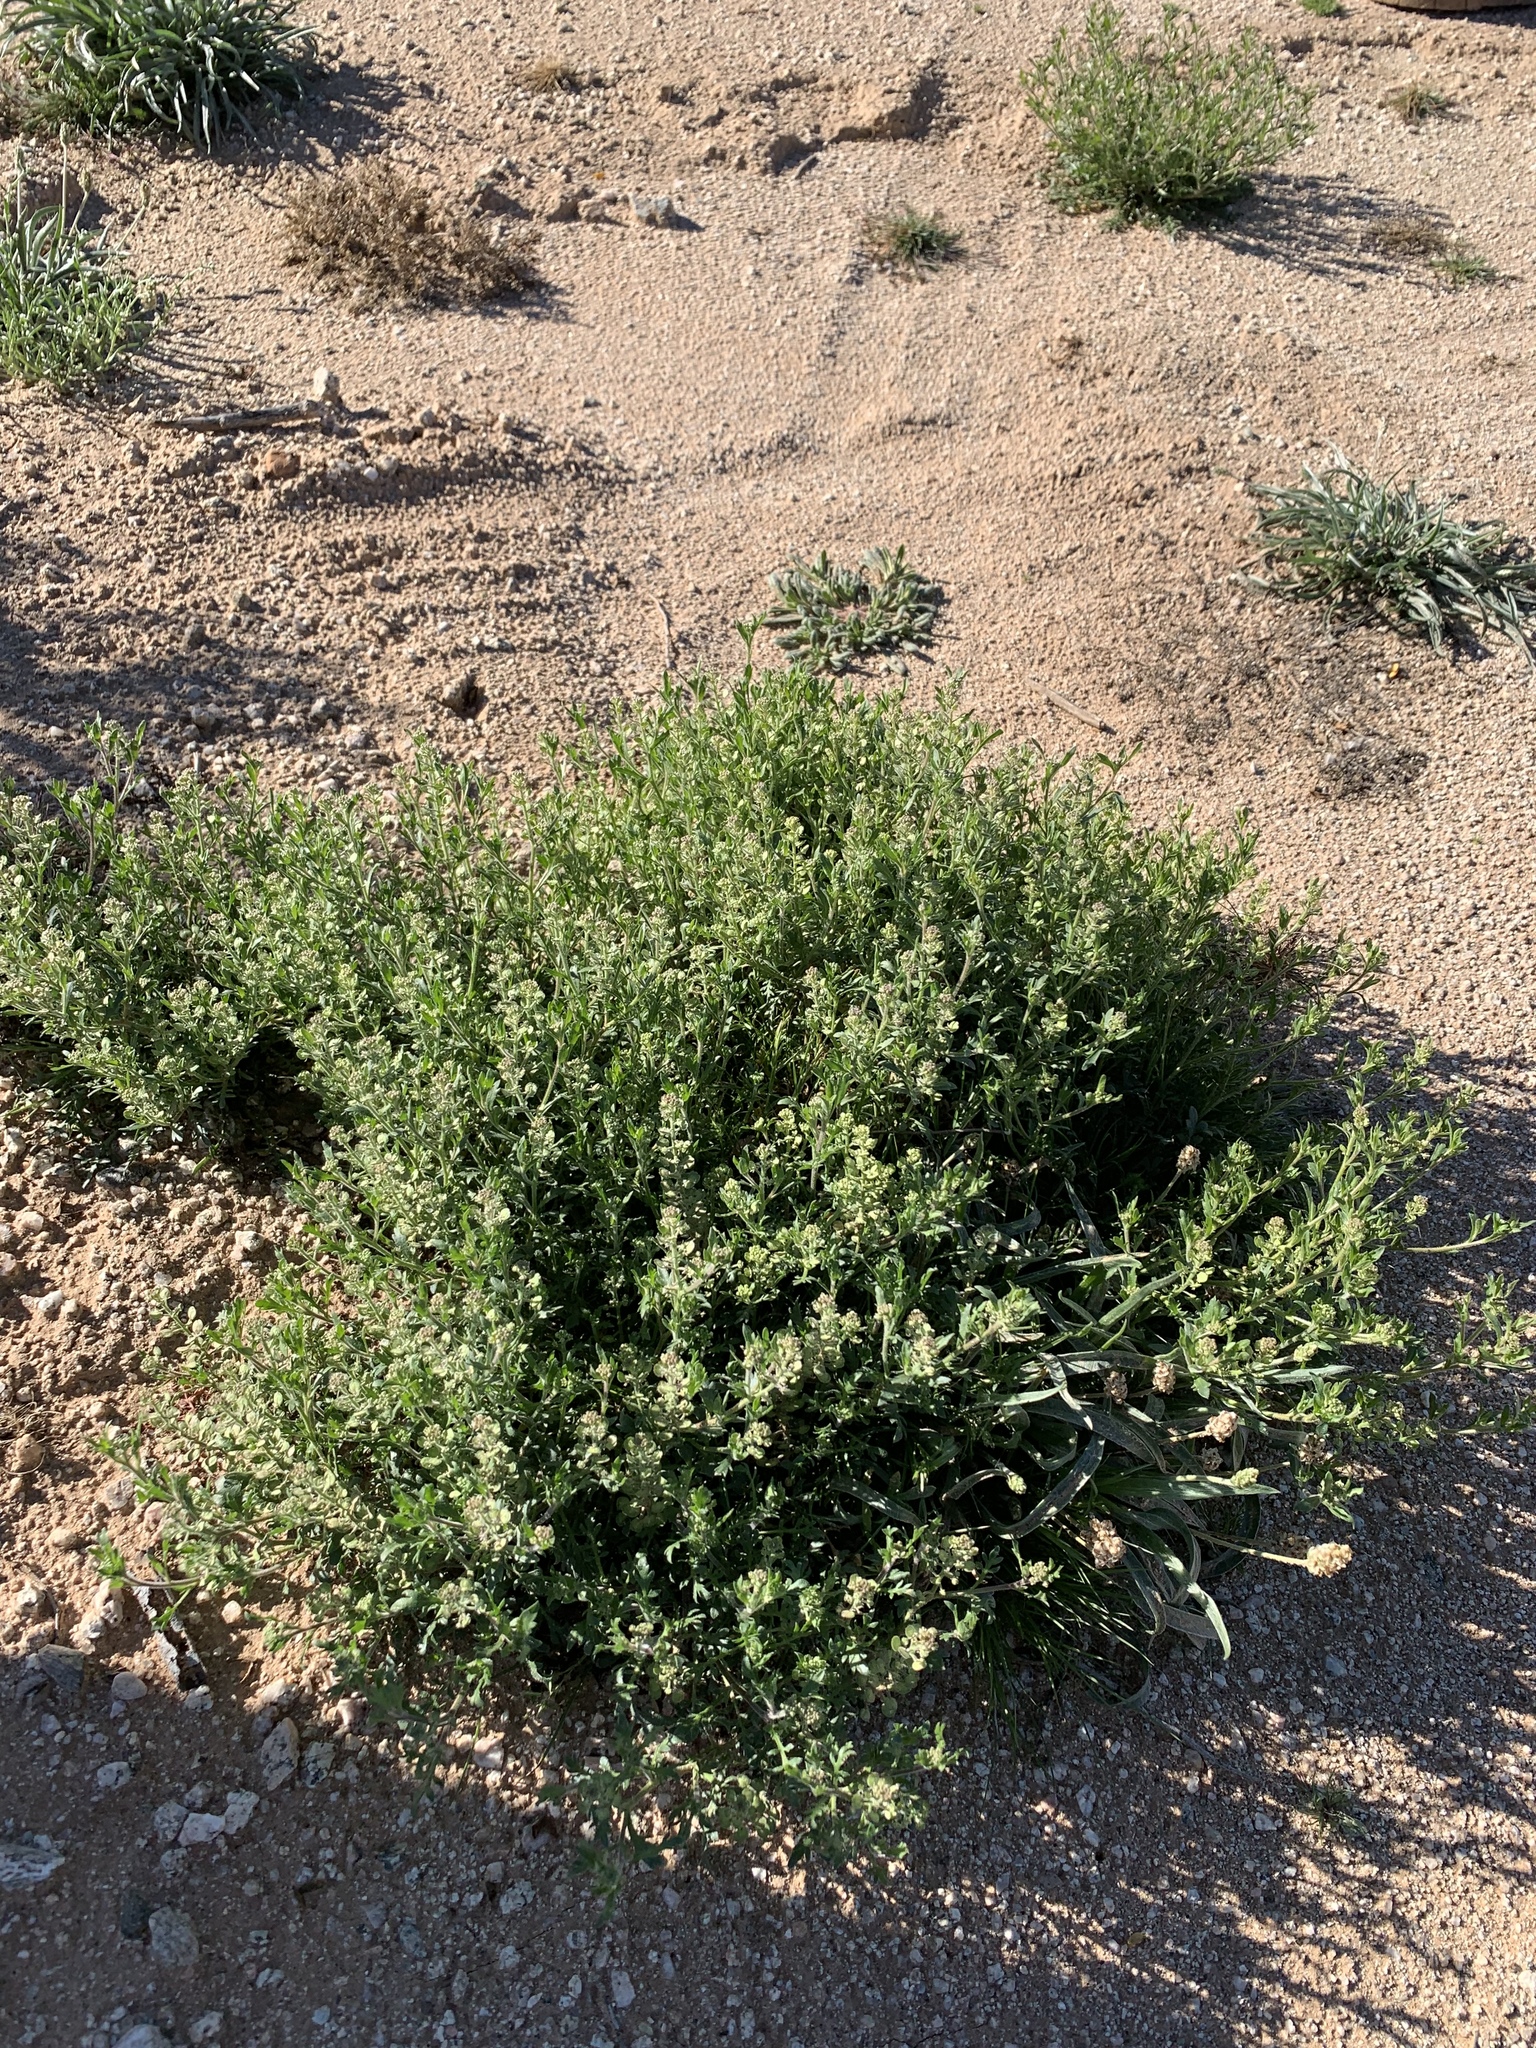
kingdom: Plantae
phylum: Tracheophyta
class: Magnoliopsida
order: Brassicales
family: Brassicaceae
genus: Lepidium
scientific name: Lepidium lasiocarpum
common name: Hairy-pod pepperwort
